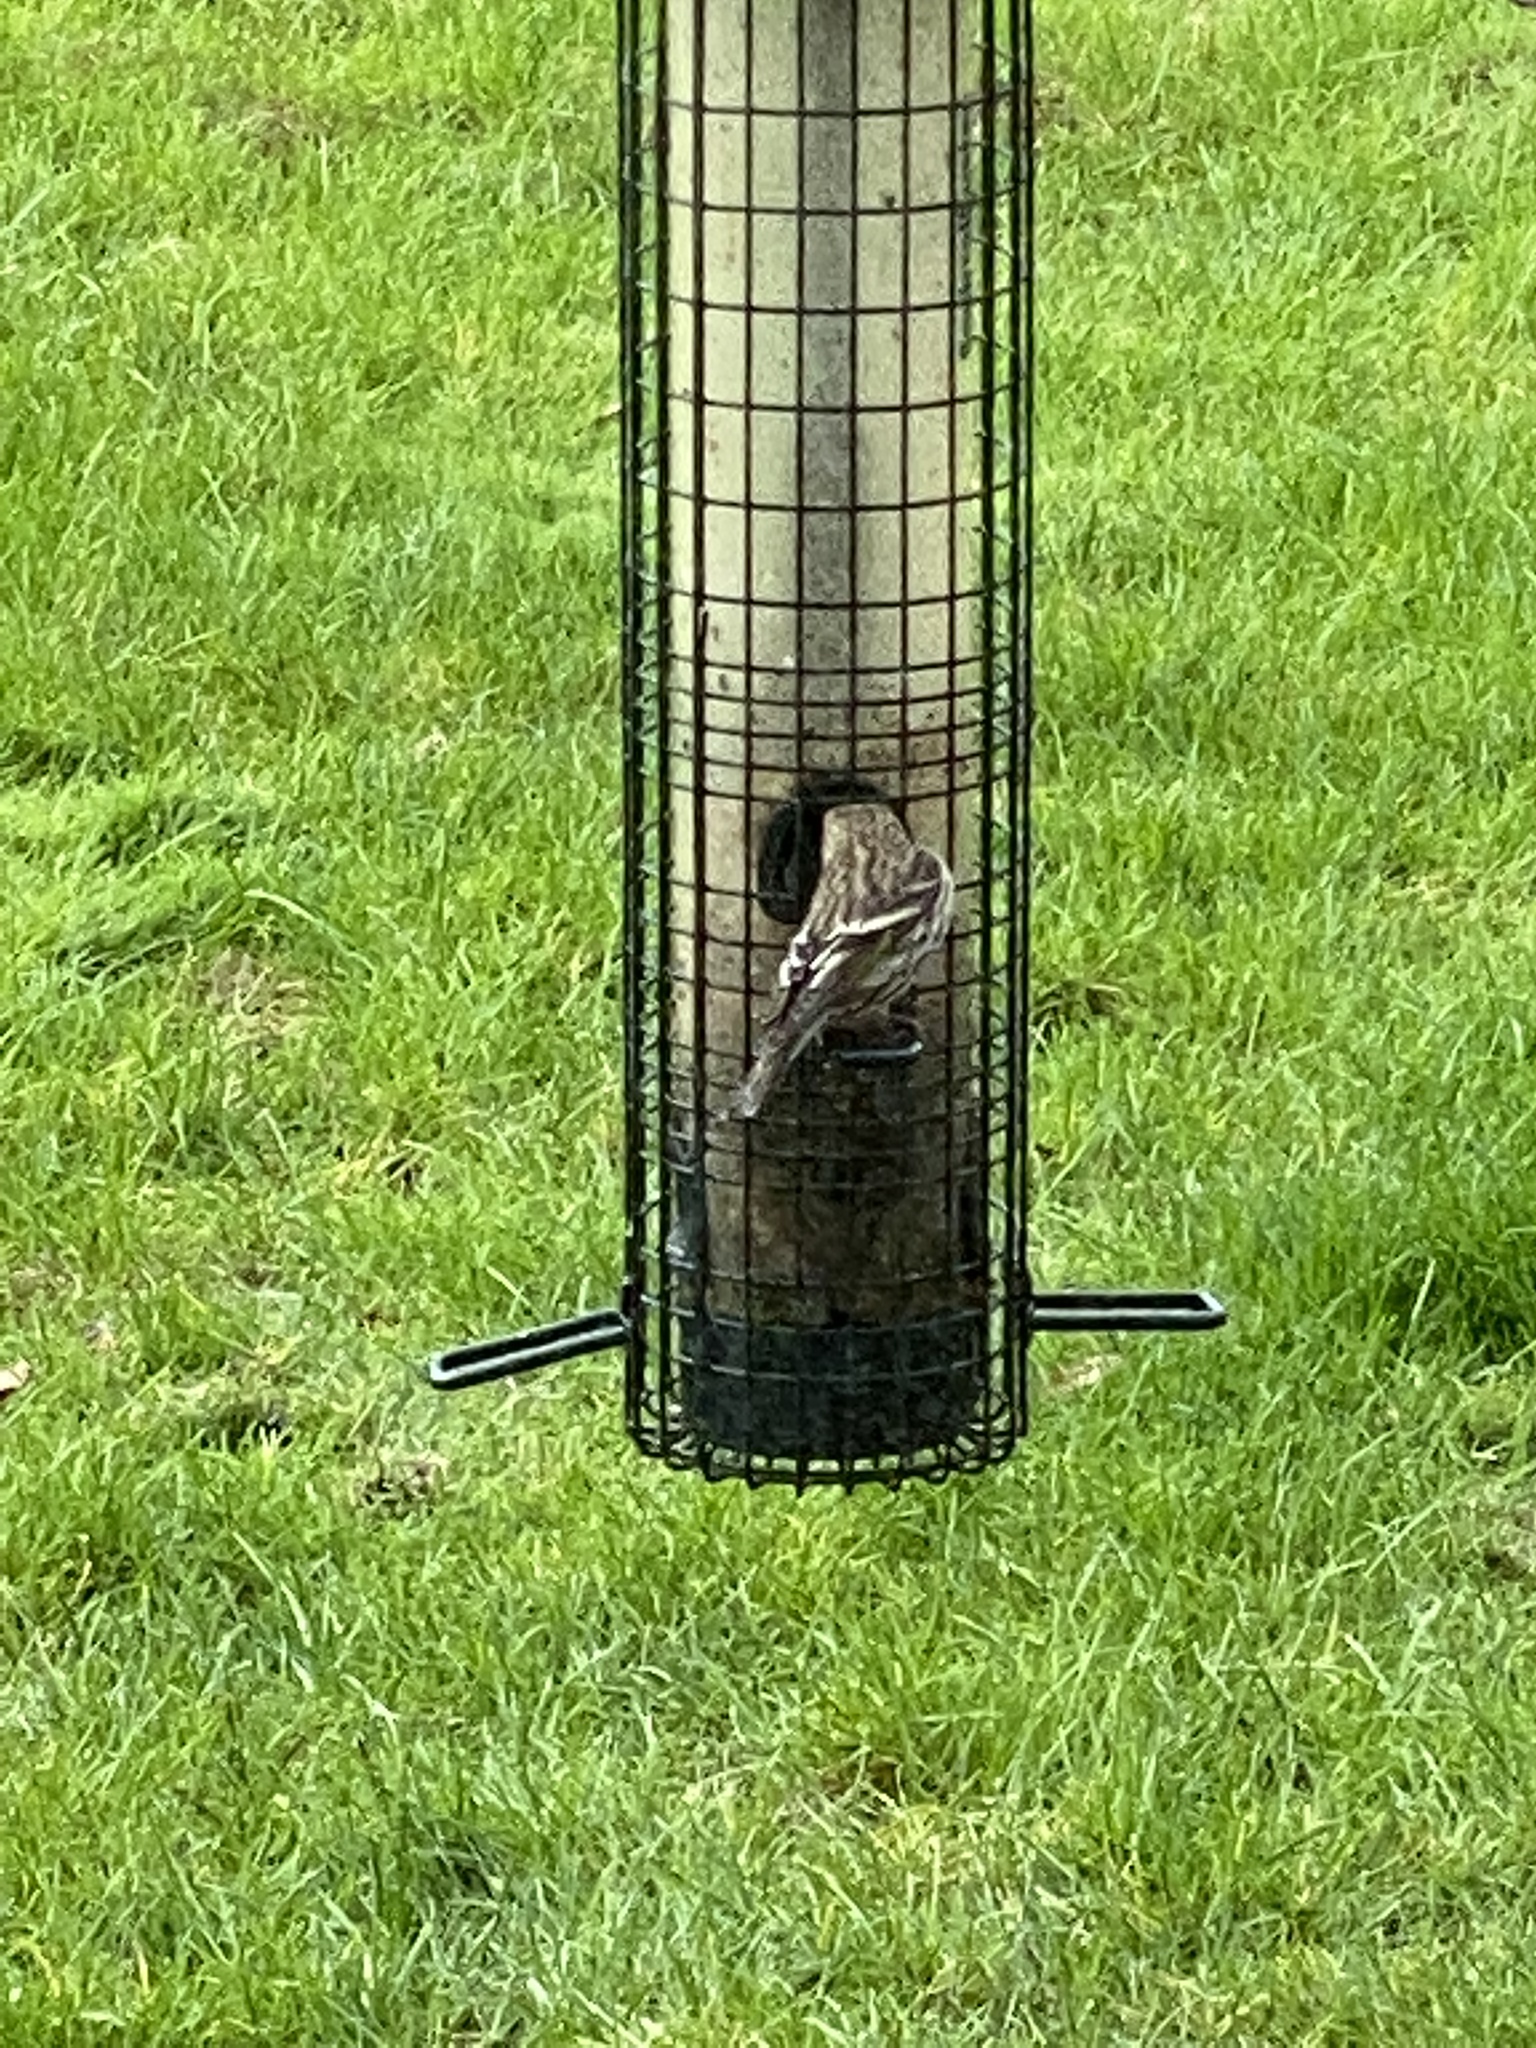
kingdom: Animalia
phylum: Chordata
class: Aves
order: Passeriformes
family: Fringillidae
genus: Spinus
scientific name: Spinus pinus
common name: Pine siskin
